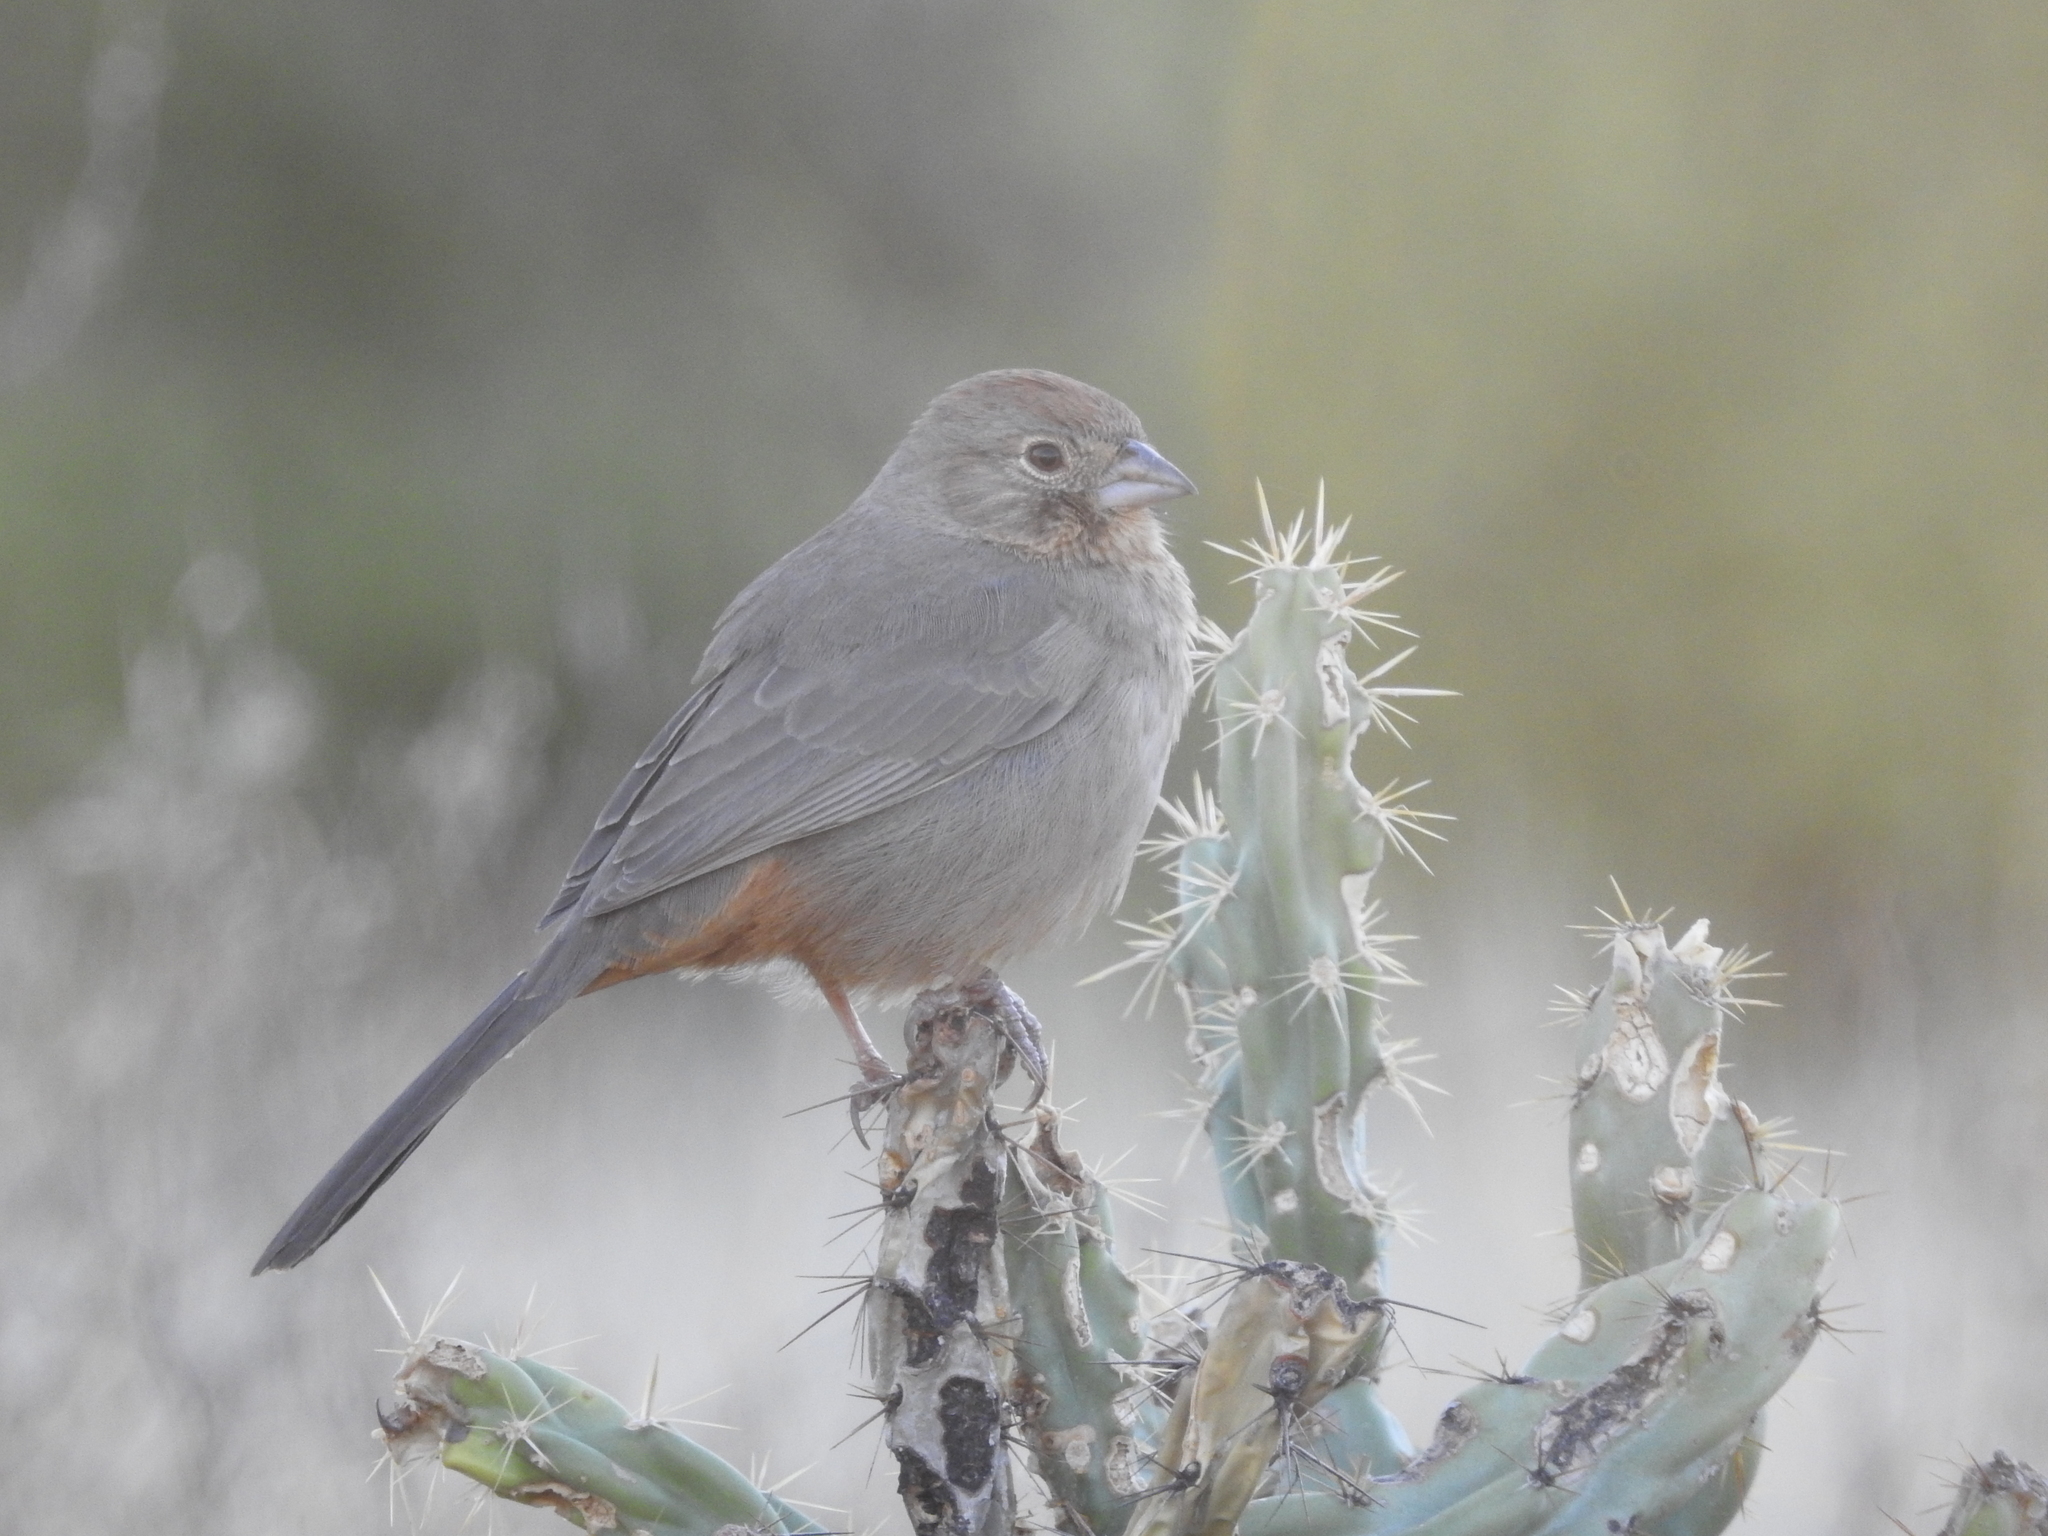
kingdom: Animalia
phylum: Chordata
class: Aves
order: Passeriformes
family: Passerellidae
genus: Melozone
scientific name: Melozone fusca
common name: Canyon towhee
